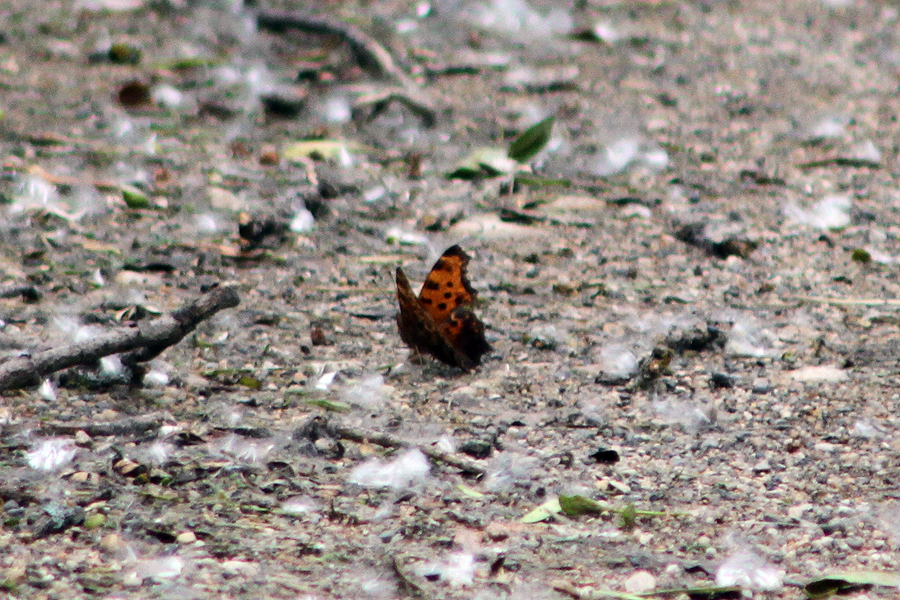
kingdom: Animalia
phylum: Arthropoda
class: Insecta
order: Lepidoptera
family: Nymphalidae
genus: Polygonia
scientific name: Polygonia comma
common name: Eastern comma
